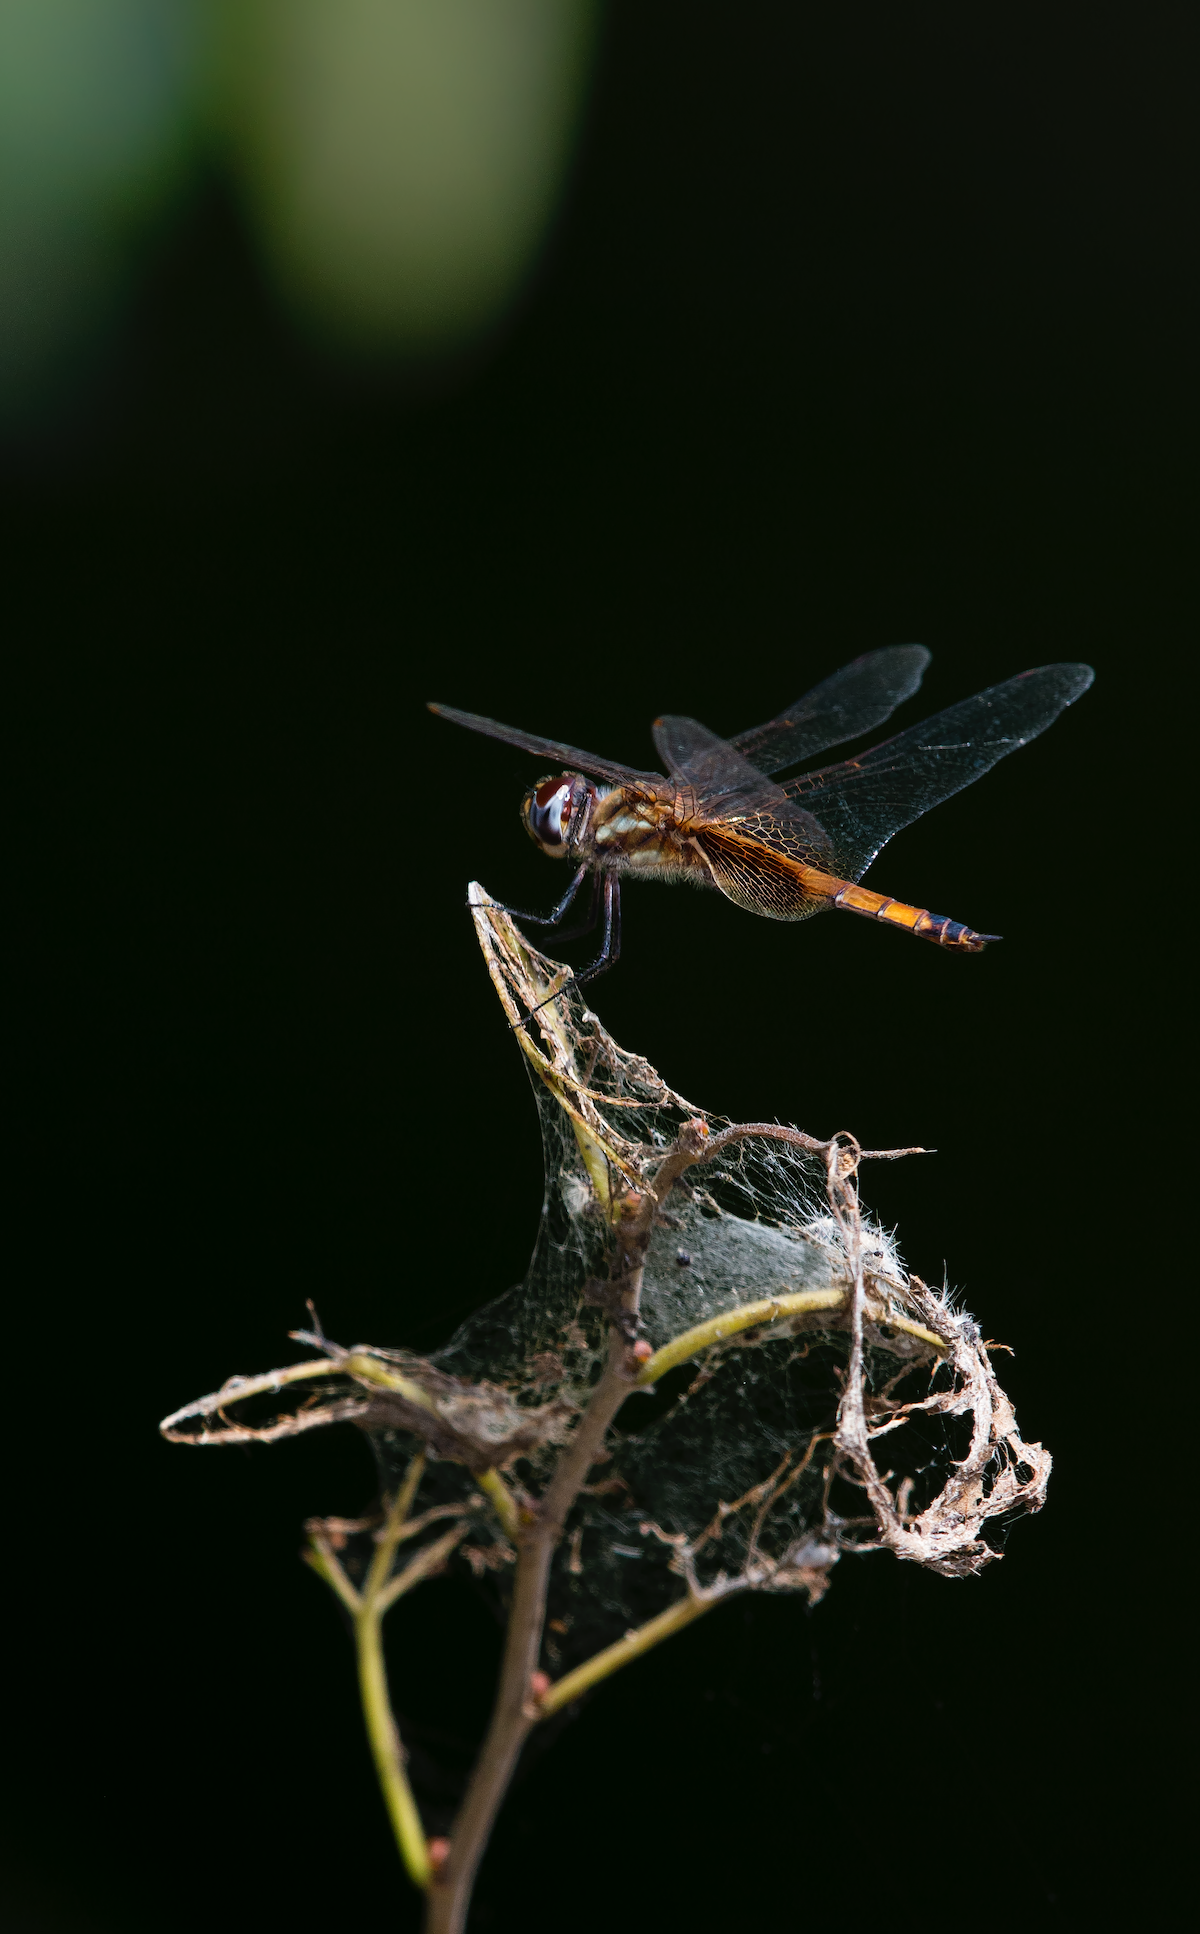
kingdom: Animalia
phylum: Arthropoda
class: Insecta
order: Odonata
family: Libellulidae
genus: Tramea
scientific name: Tramea darwini
